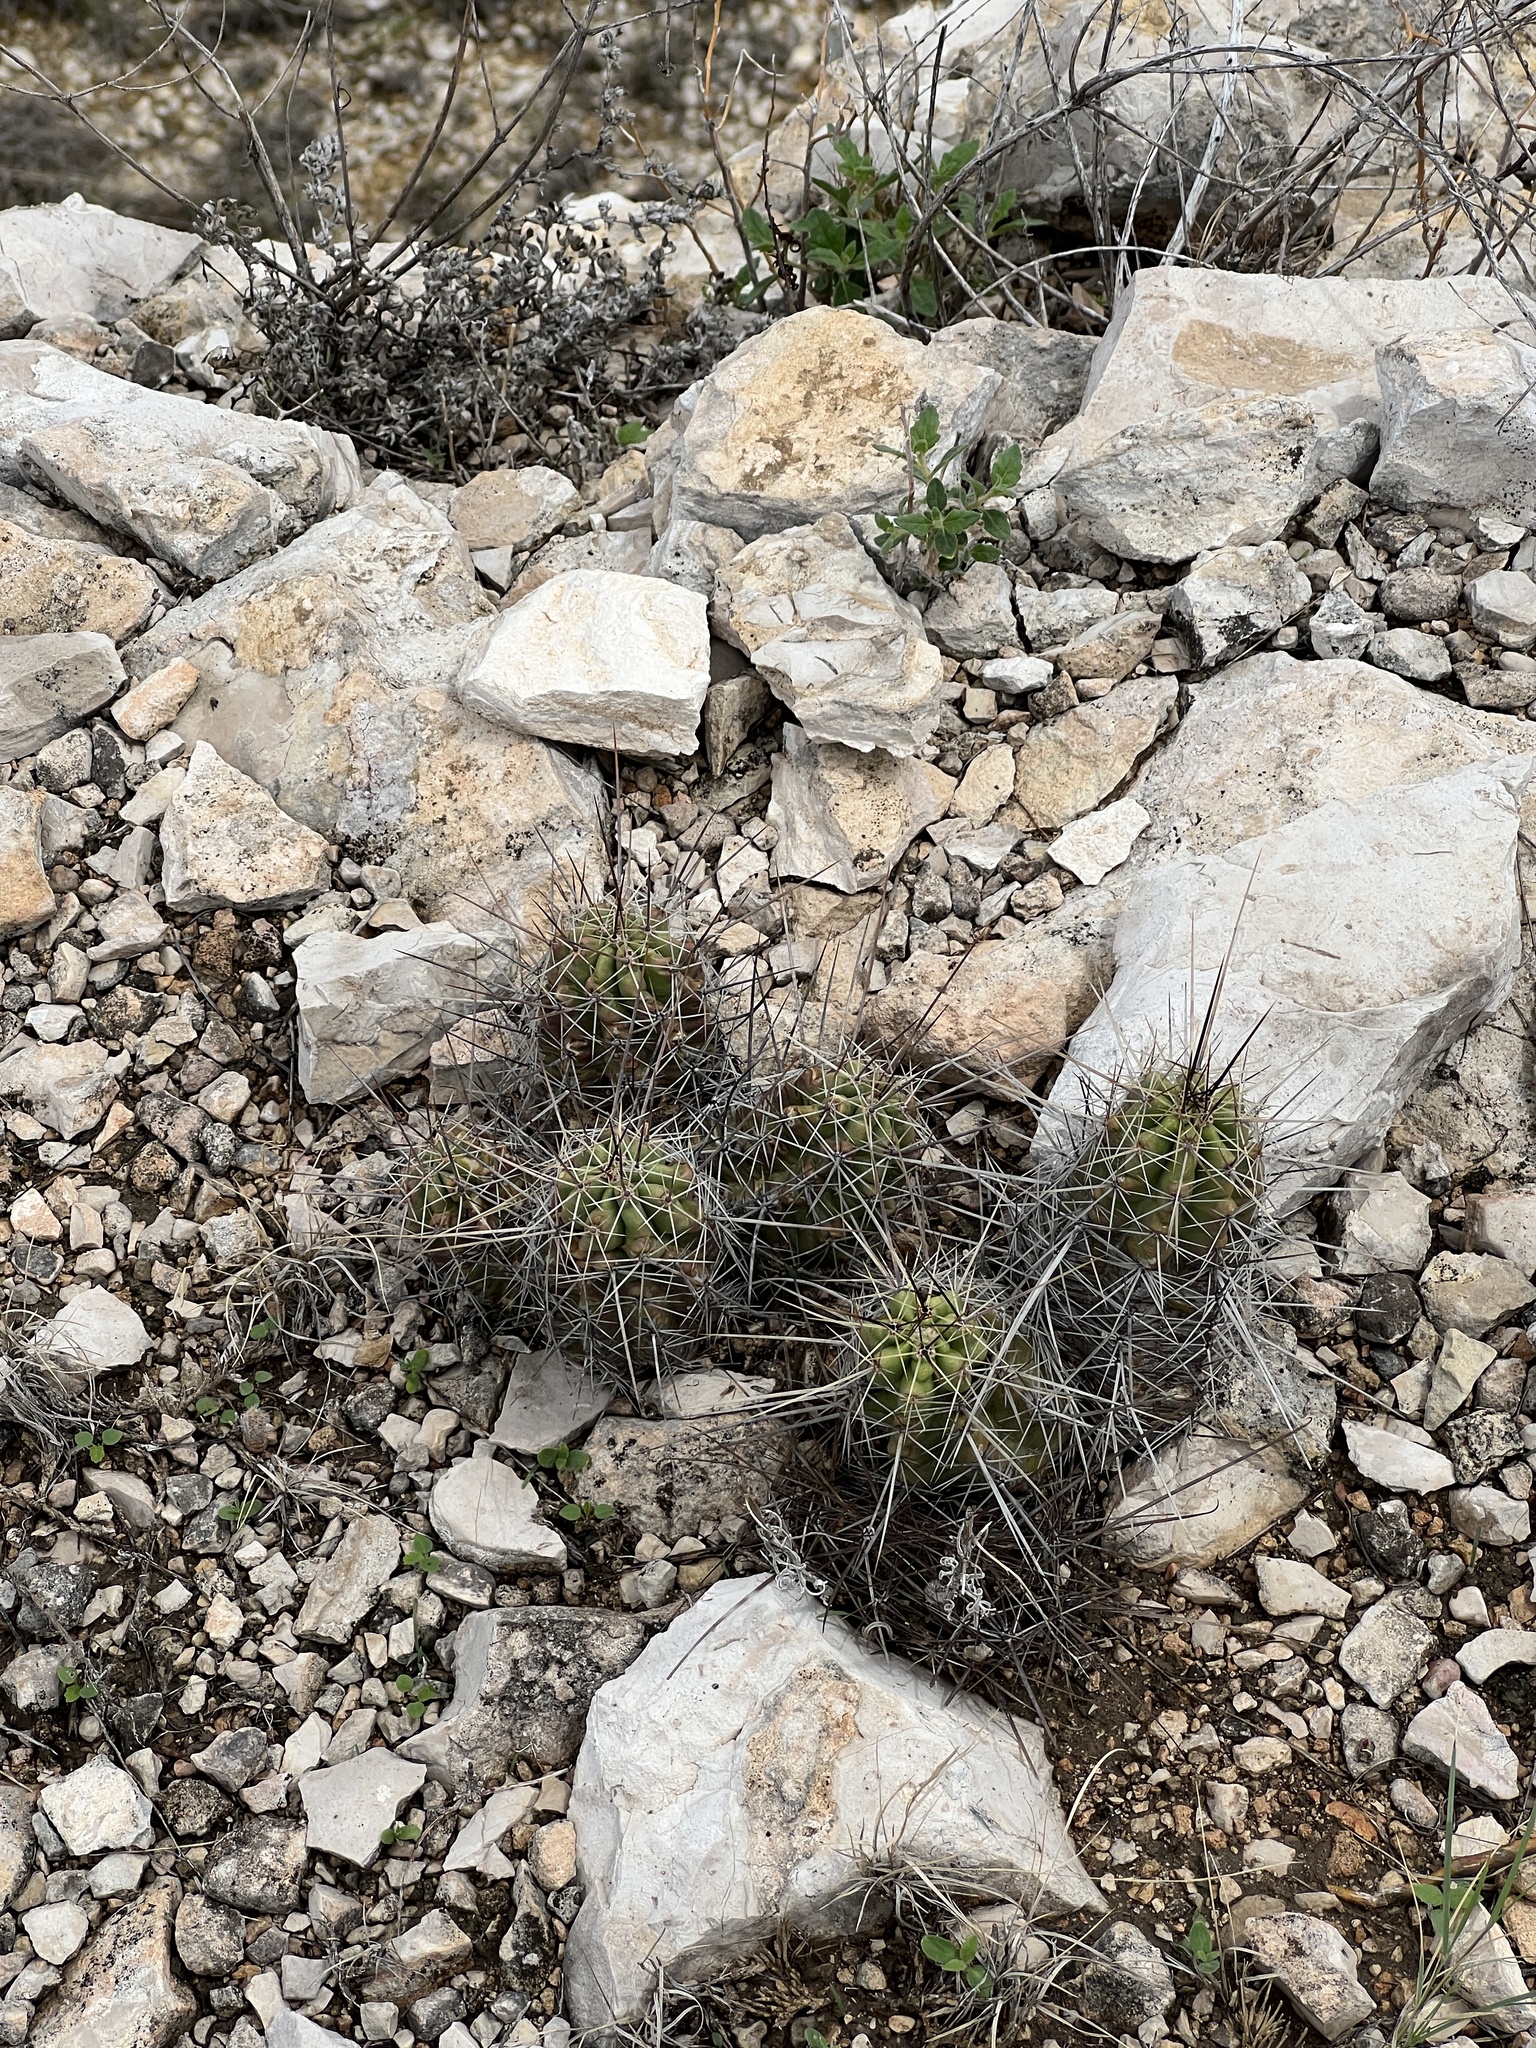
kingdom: Plantae
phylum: Tracheophyta
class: Magnoliopsida
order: Caryophyllales
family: Cactaceae
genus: Echinocereus
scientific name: Echinocereus enneacanthus
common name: Pitaya
